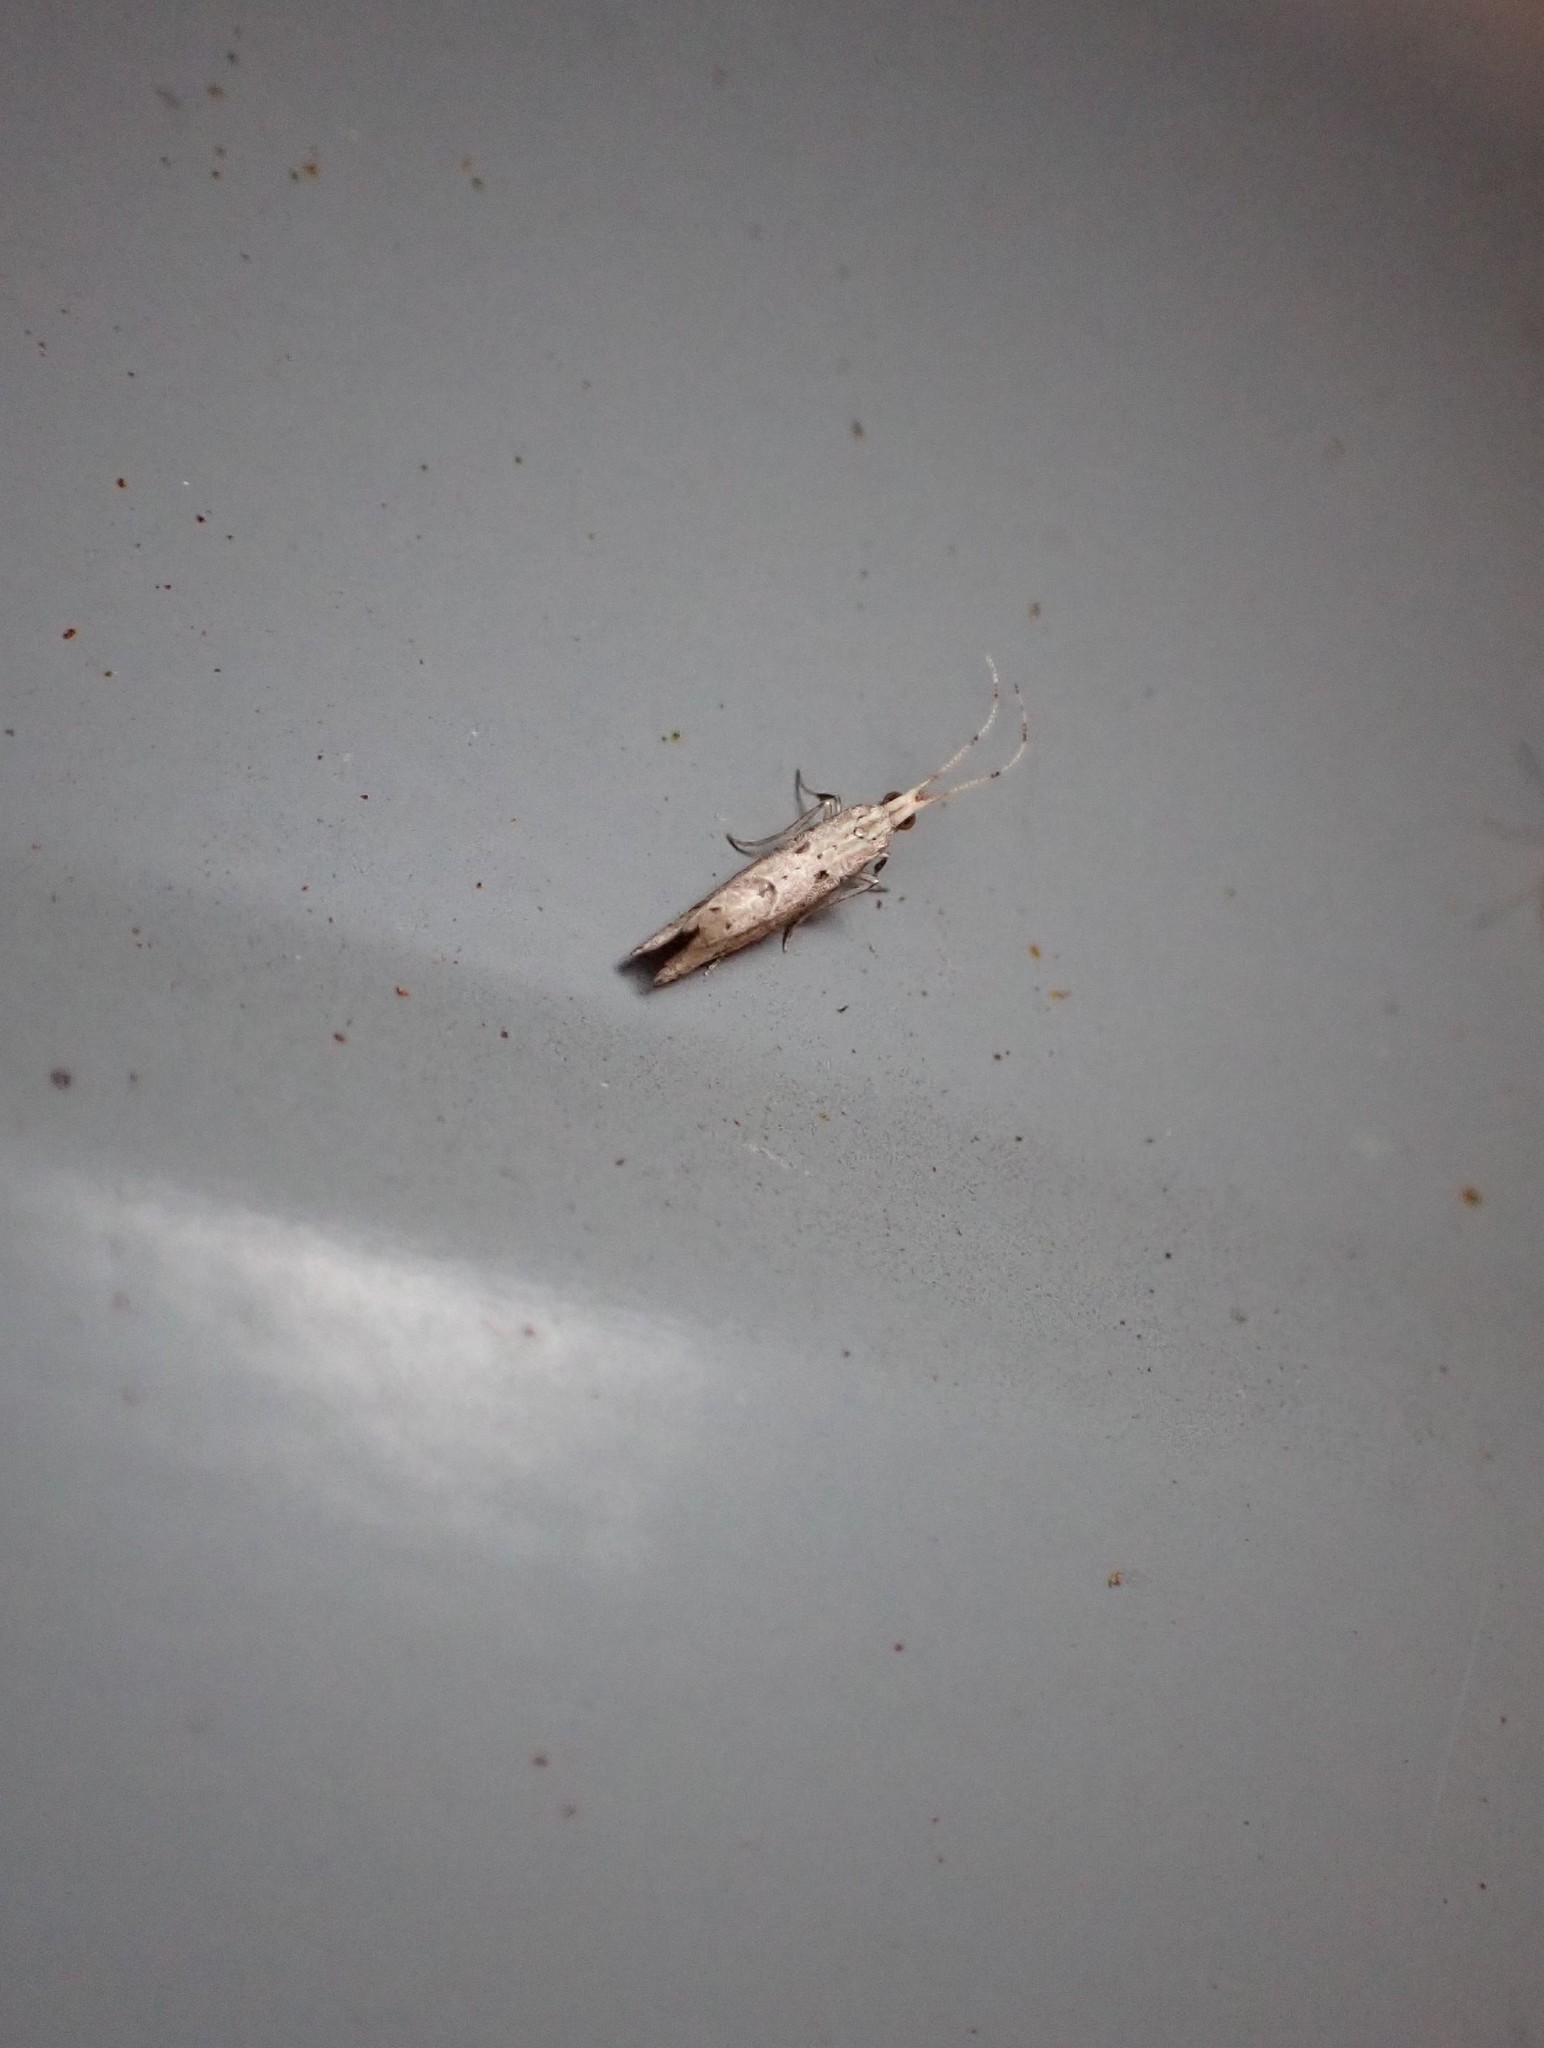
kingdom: Animalia
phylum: Arthropoda
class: Insecta
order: Lepidoptera
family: Plutellidae
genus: Leuroperna
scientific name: Leuroperna sera
